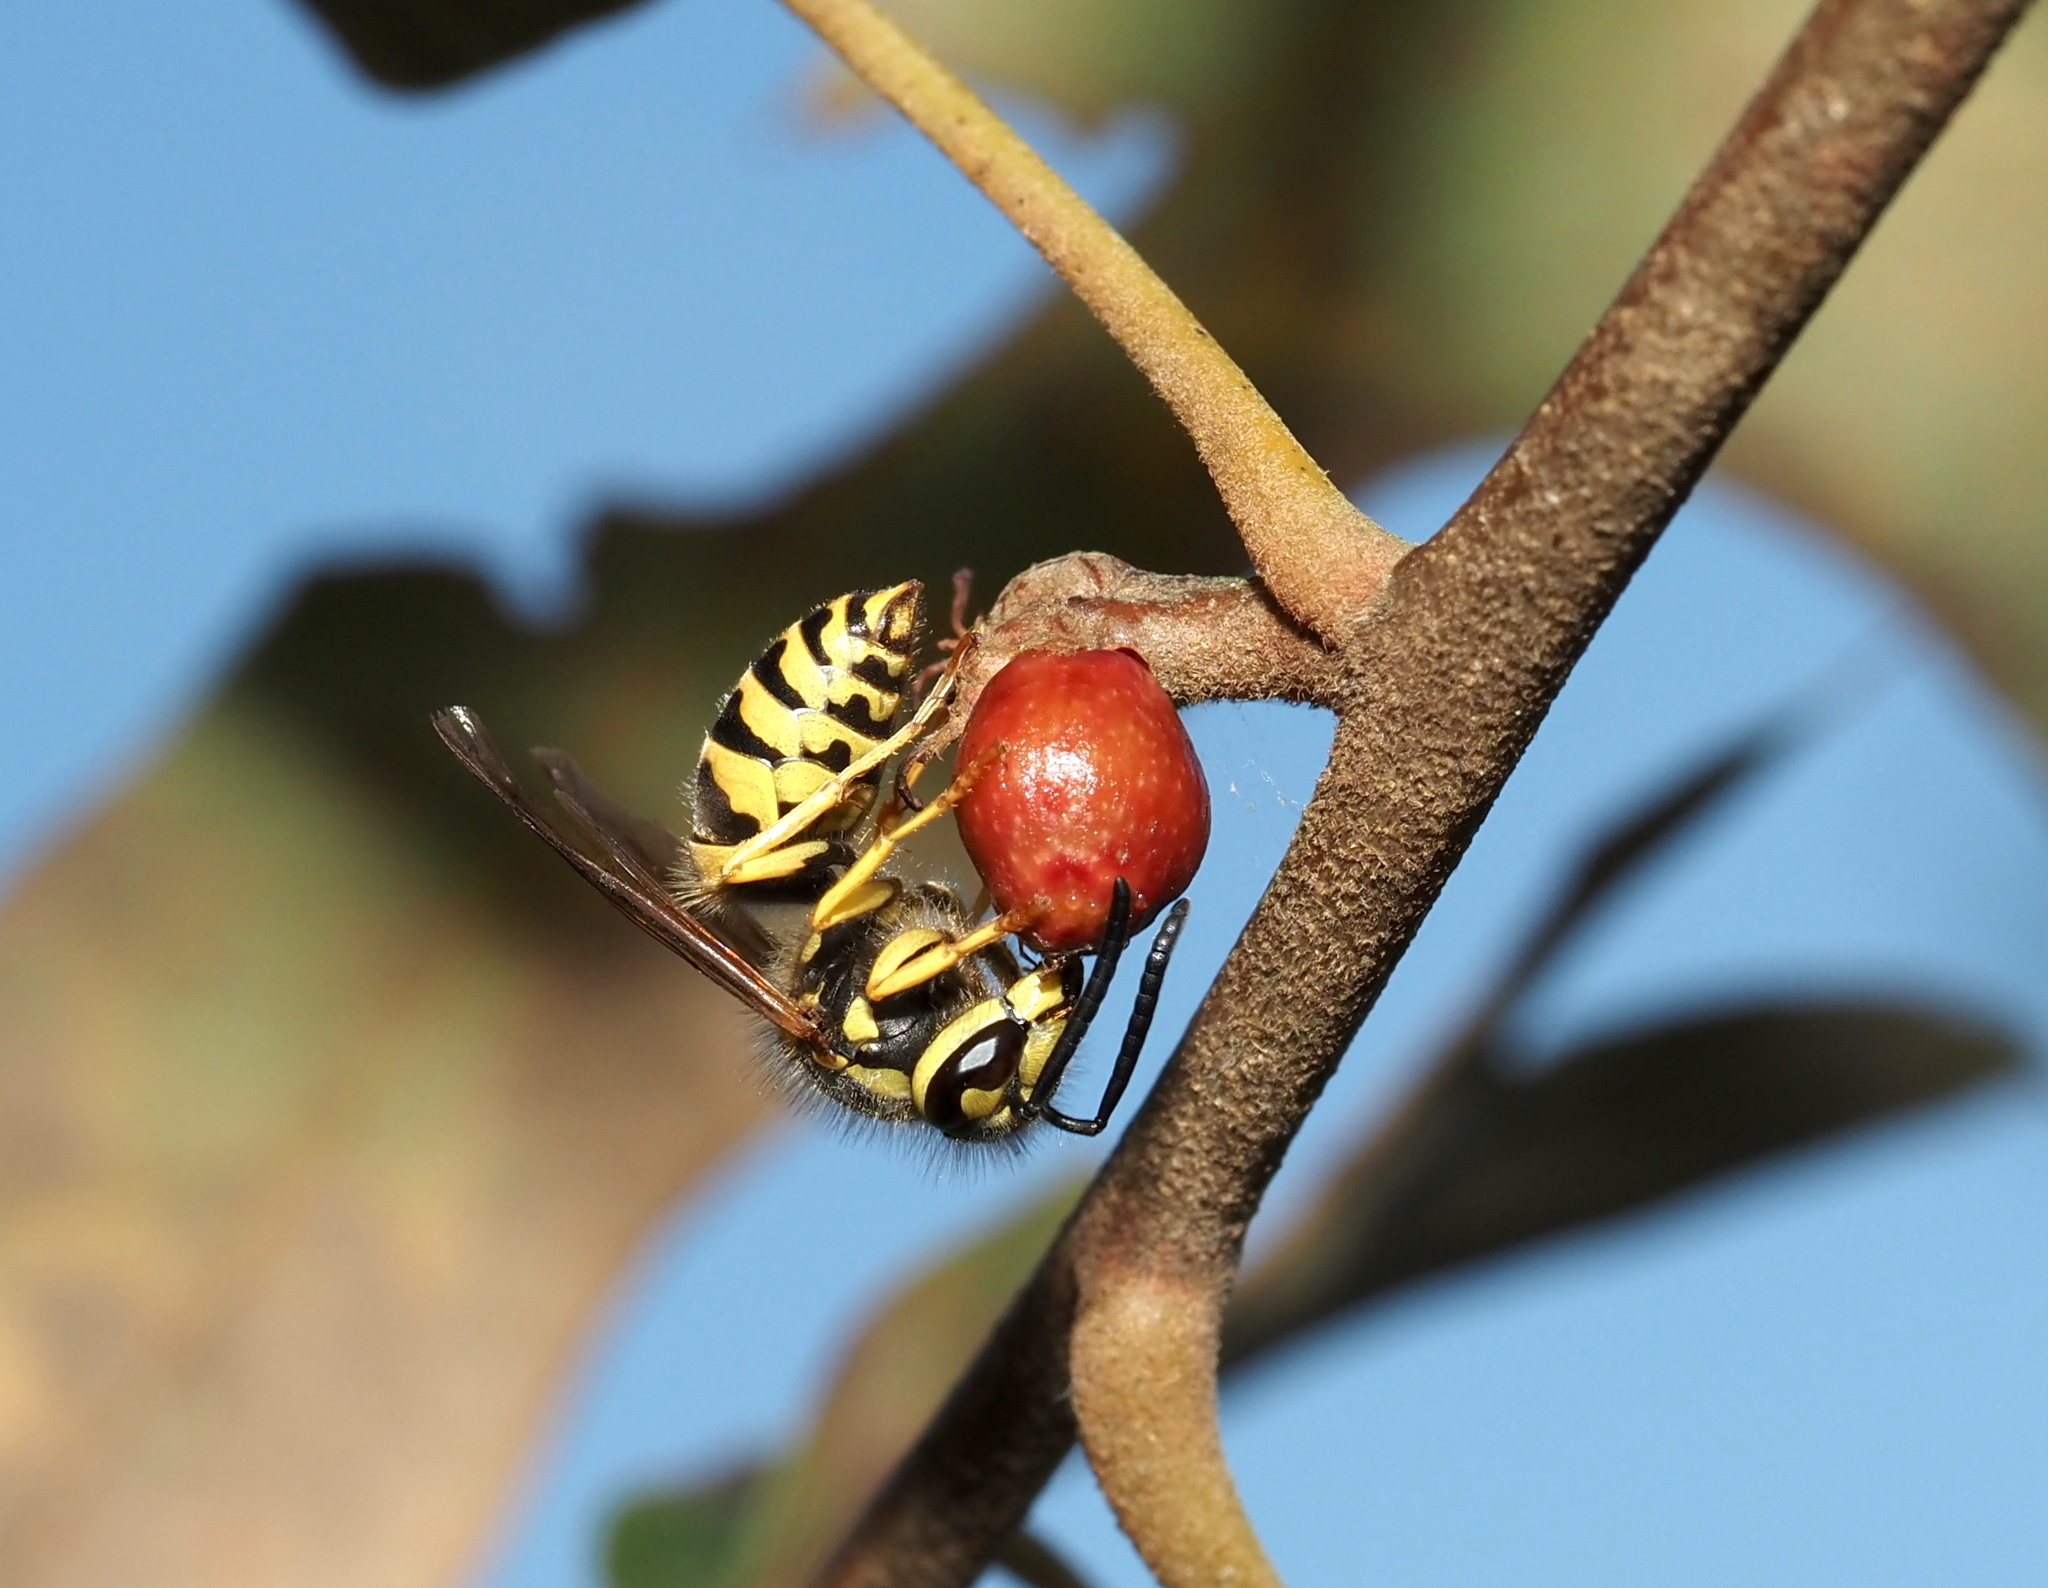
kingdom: Animalia
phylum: Arthropoda
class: Insecta
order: Hymenoptera
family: Cynipidae
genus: Callirhytis
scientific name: Callirhytis
